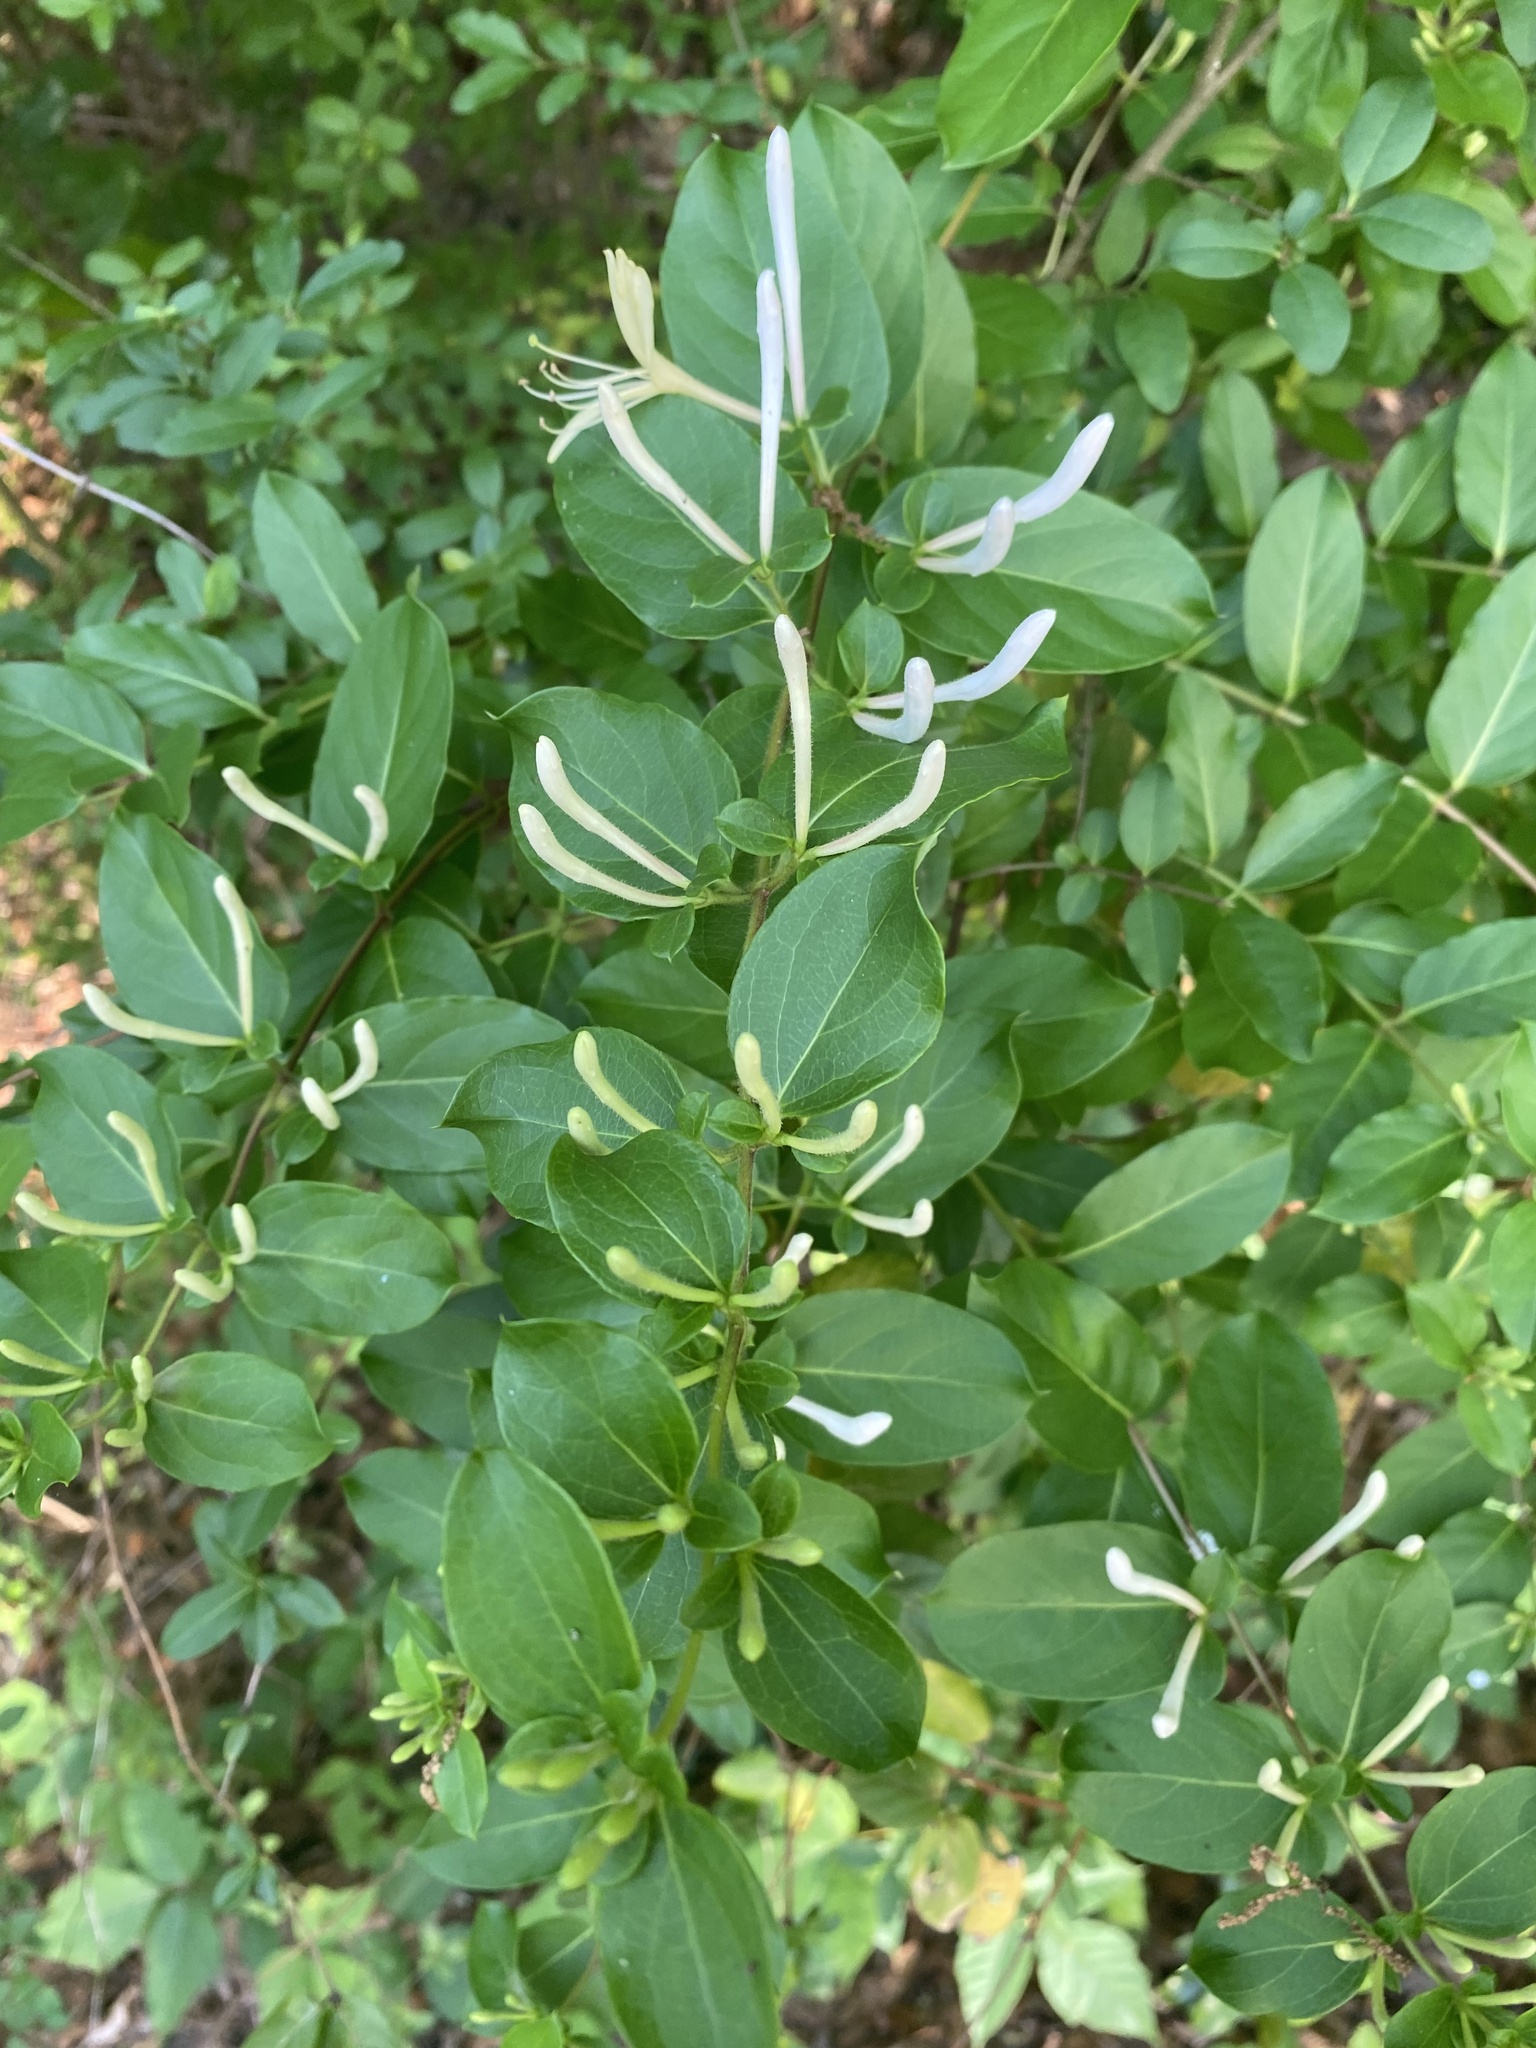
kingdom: Plantae
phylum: Tracheophyta
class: Magnoliopsida
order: Dipsacales
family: Caprifoliaceae
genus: Lonicera
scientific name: Lonicera japonica
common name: Japanese honeysuckle
